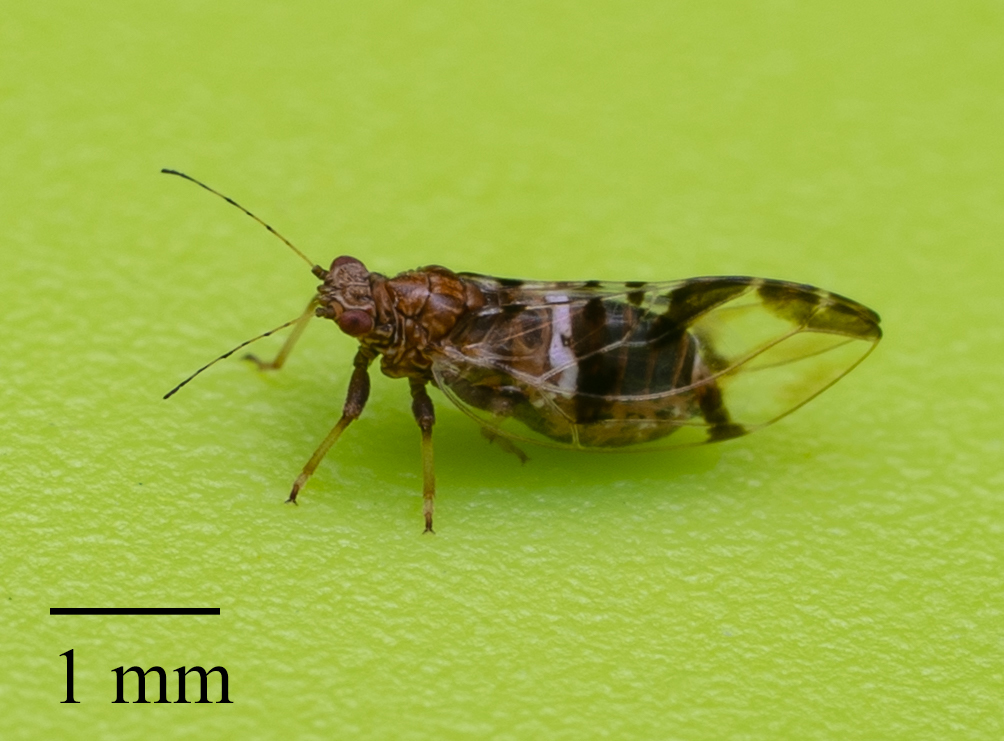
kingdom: Animalia
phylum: Arthropoda
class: Insecta
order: Hemiptera
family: Triozidae
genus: Bactericera
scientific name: Bactericera maculipennis
